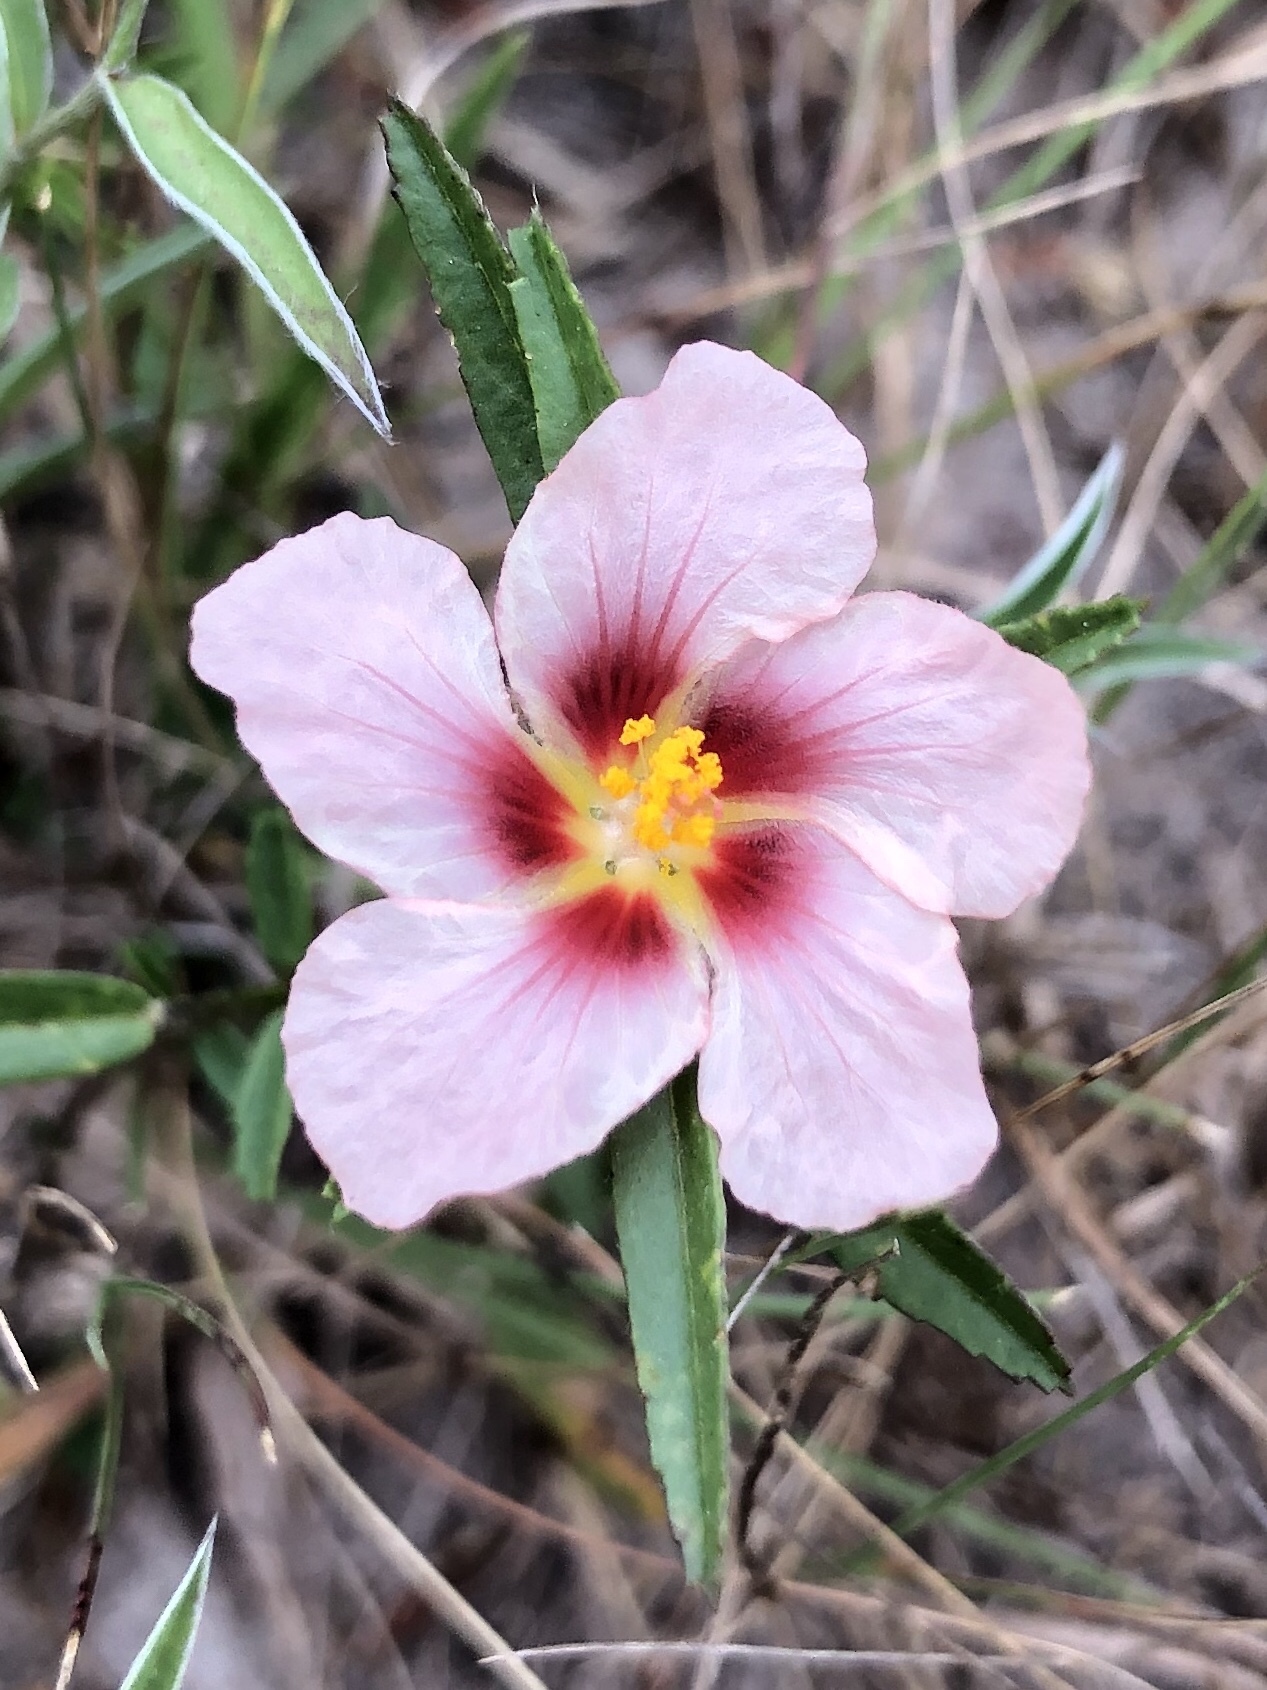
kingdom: Plantae
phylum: Tracheophyta
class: Magnoliopsida
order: Malvales
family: Malvaceae
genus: Sida
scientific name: Sida ciliaris
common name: Bracted fanpetals
